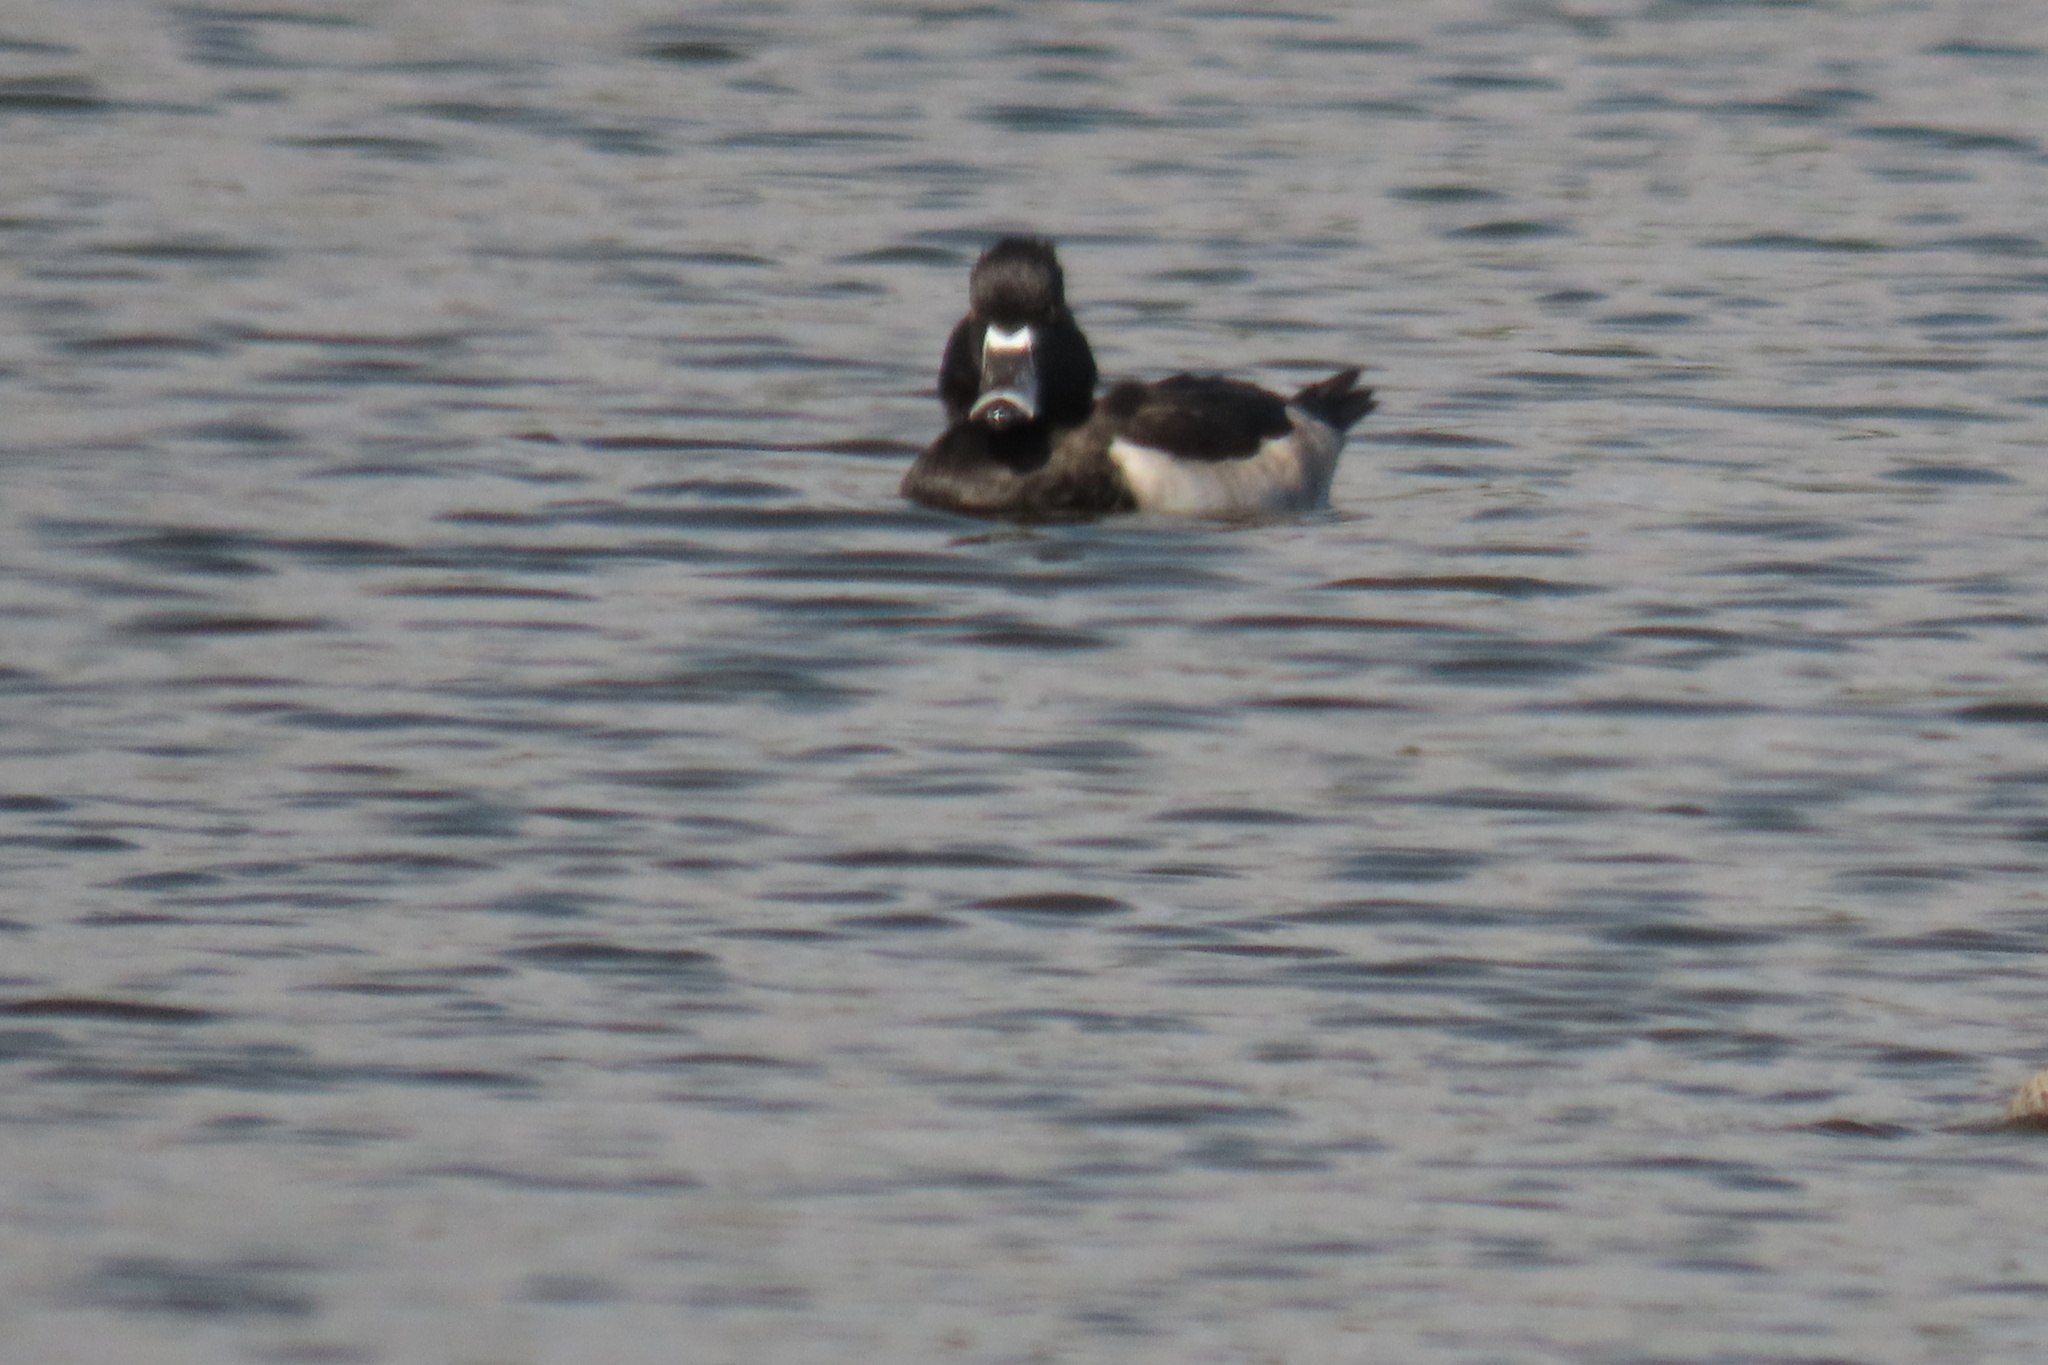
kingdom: Animalia
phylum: Chordata
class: Aves
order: Anseriformes
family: Anatidae
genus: Aythya
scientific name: Aythya collaris
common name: Ring-necked duck
